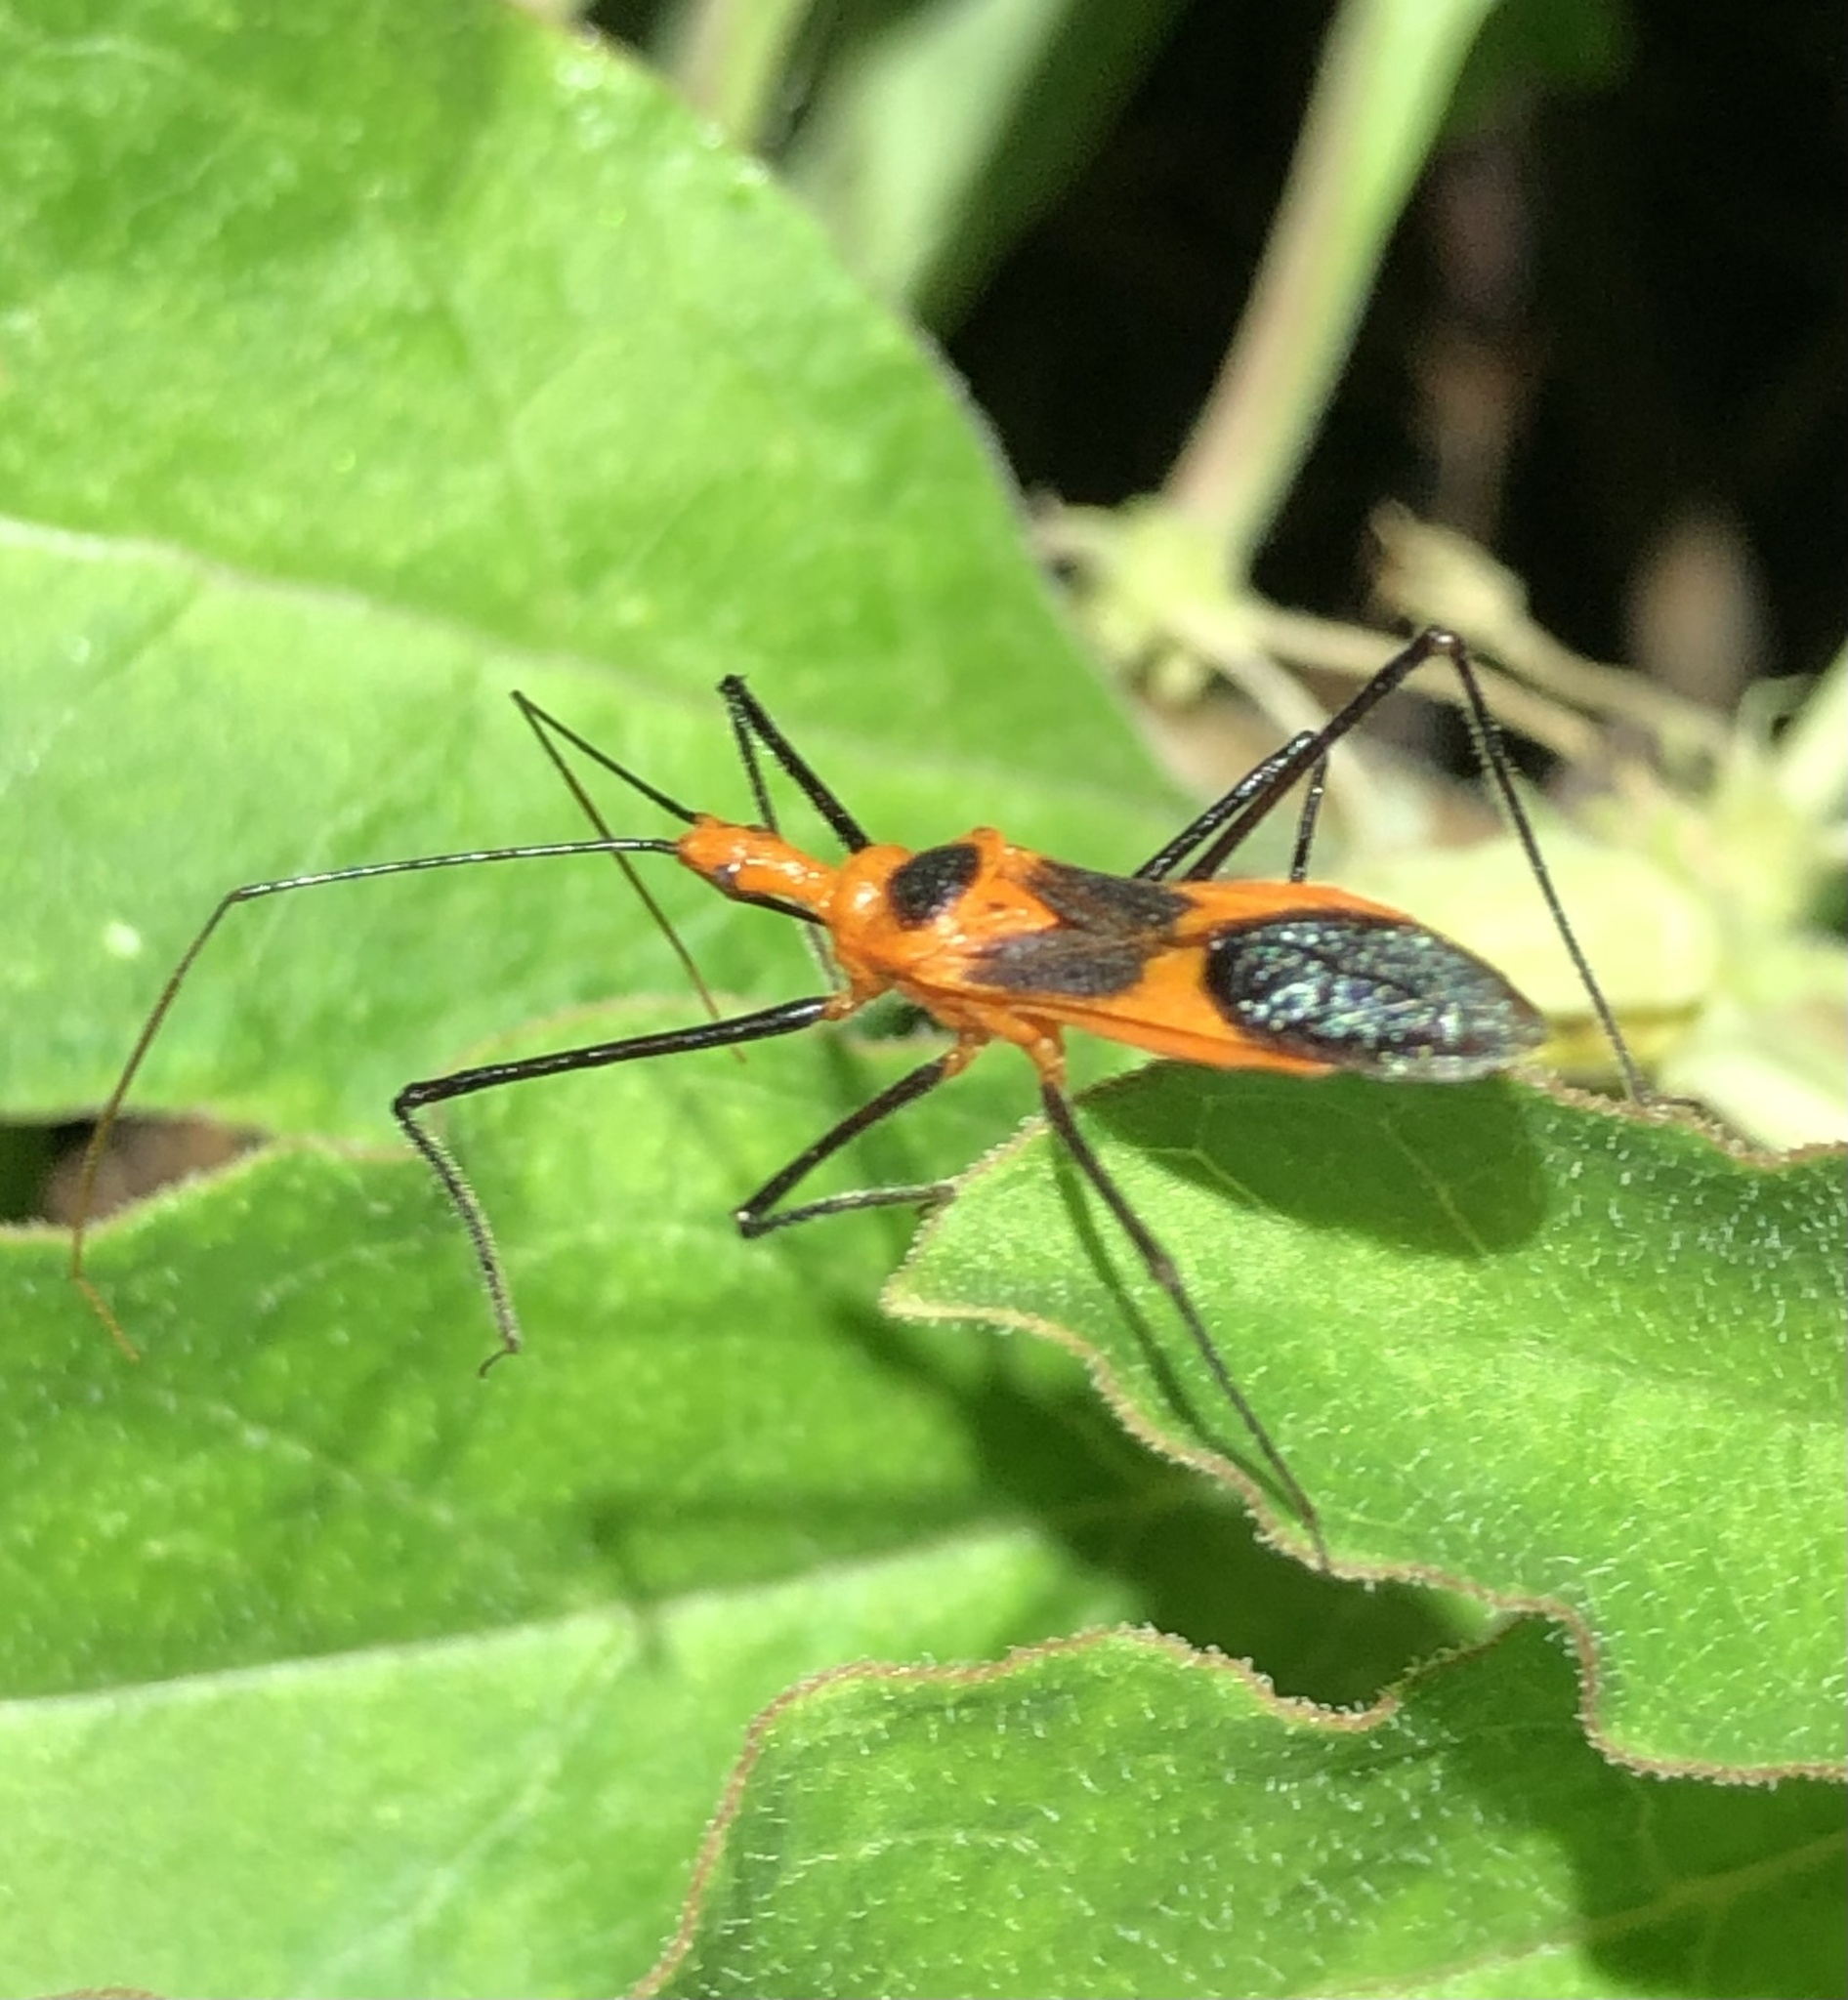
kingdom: Animalia
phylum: Arthropoda
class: Insecta
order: Hemiptera
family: Reduviidae
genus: Zelus
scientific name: Zelus longipes
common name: Milkweed assassin bug
